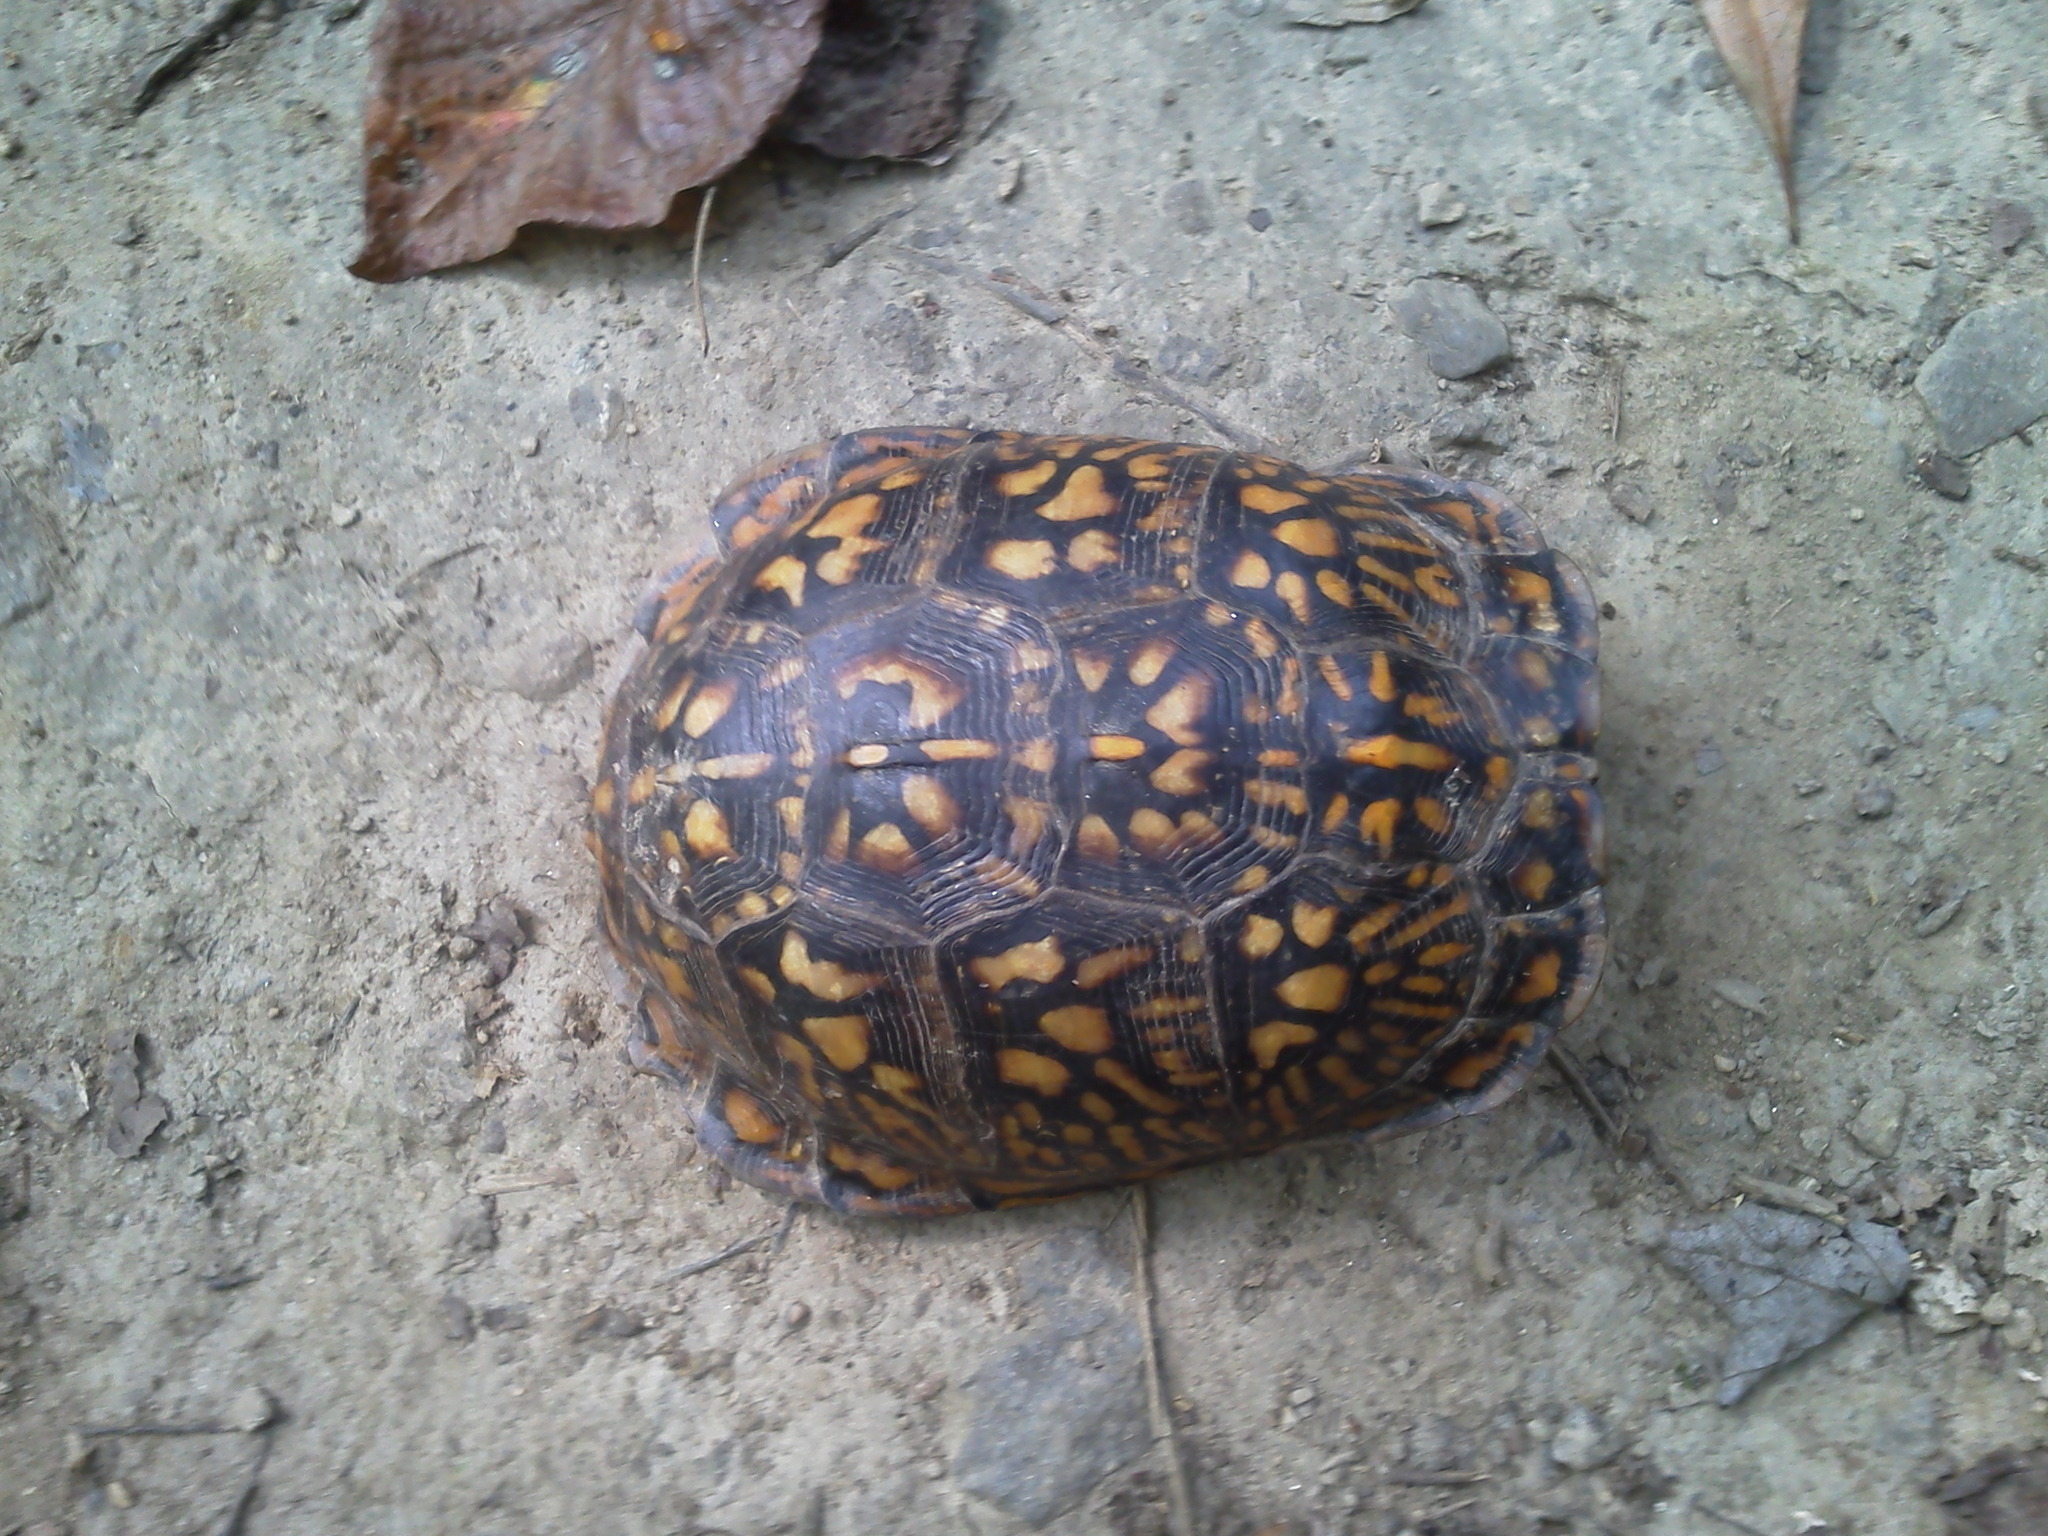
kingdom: Animalia
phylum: Chordata
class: Testudines
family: Emydidae
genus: Terrapene
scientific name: Terrapene carolina
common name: Common box turtle
